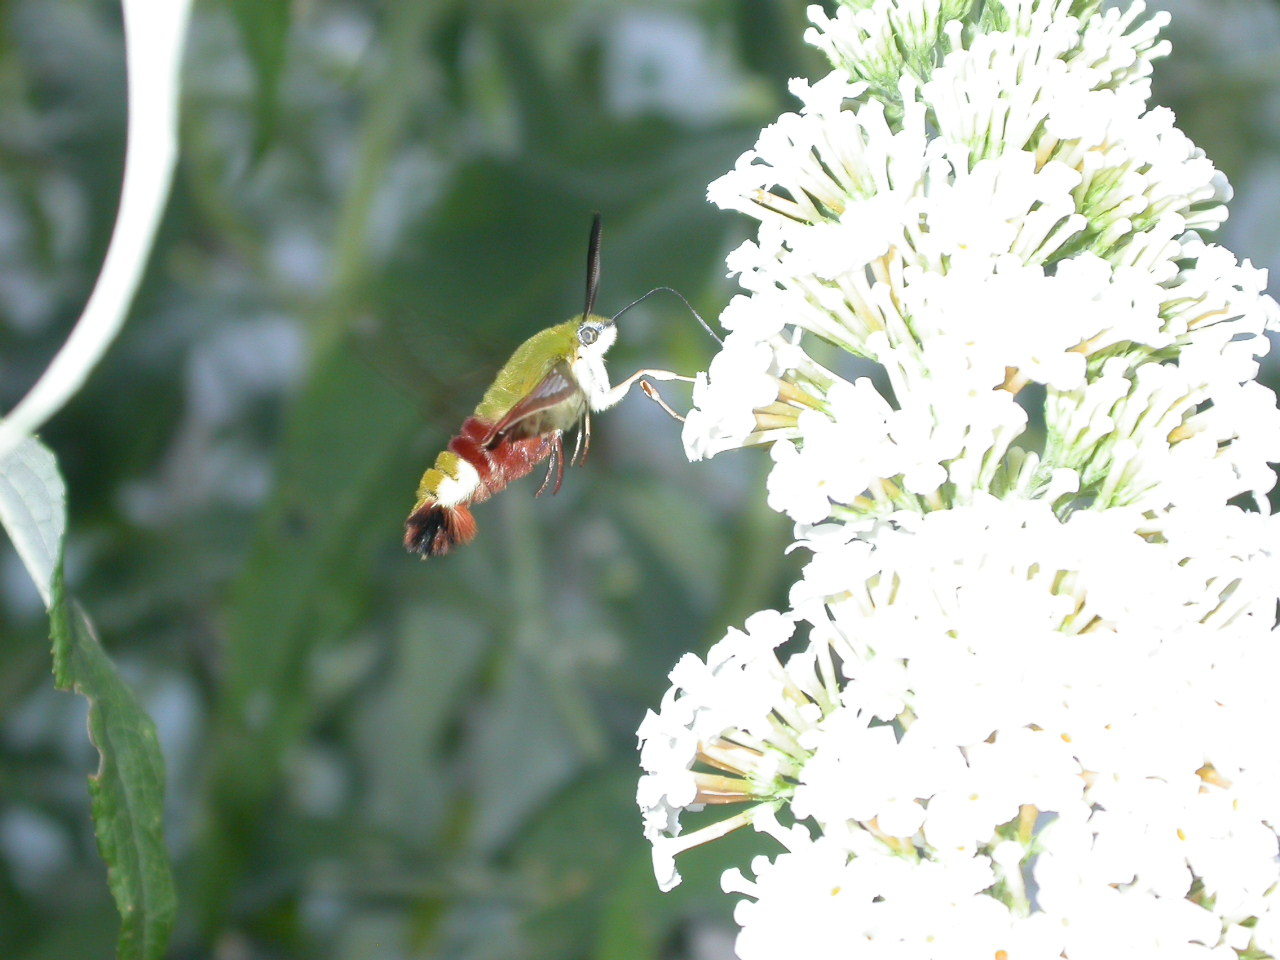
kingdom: Animalia
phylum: Arthropoda
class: Insecta
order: Lepidoptera
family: Sphingidae
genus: Hemaris
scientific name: Hemaris fuciformis
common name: Broad-bordered bee hawk-moth
